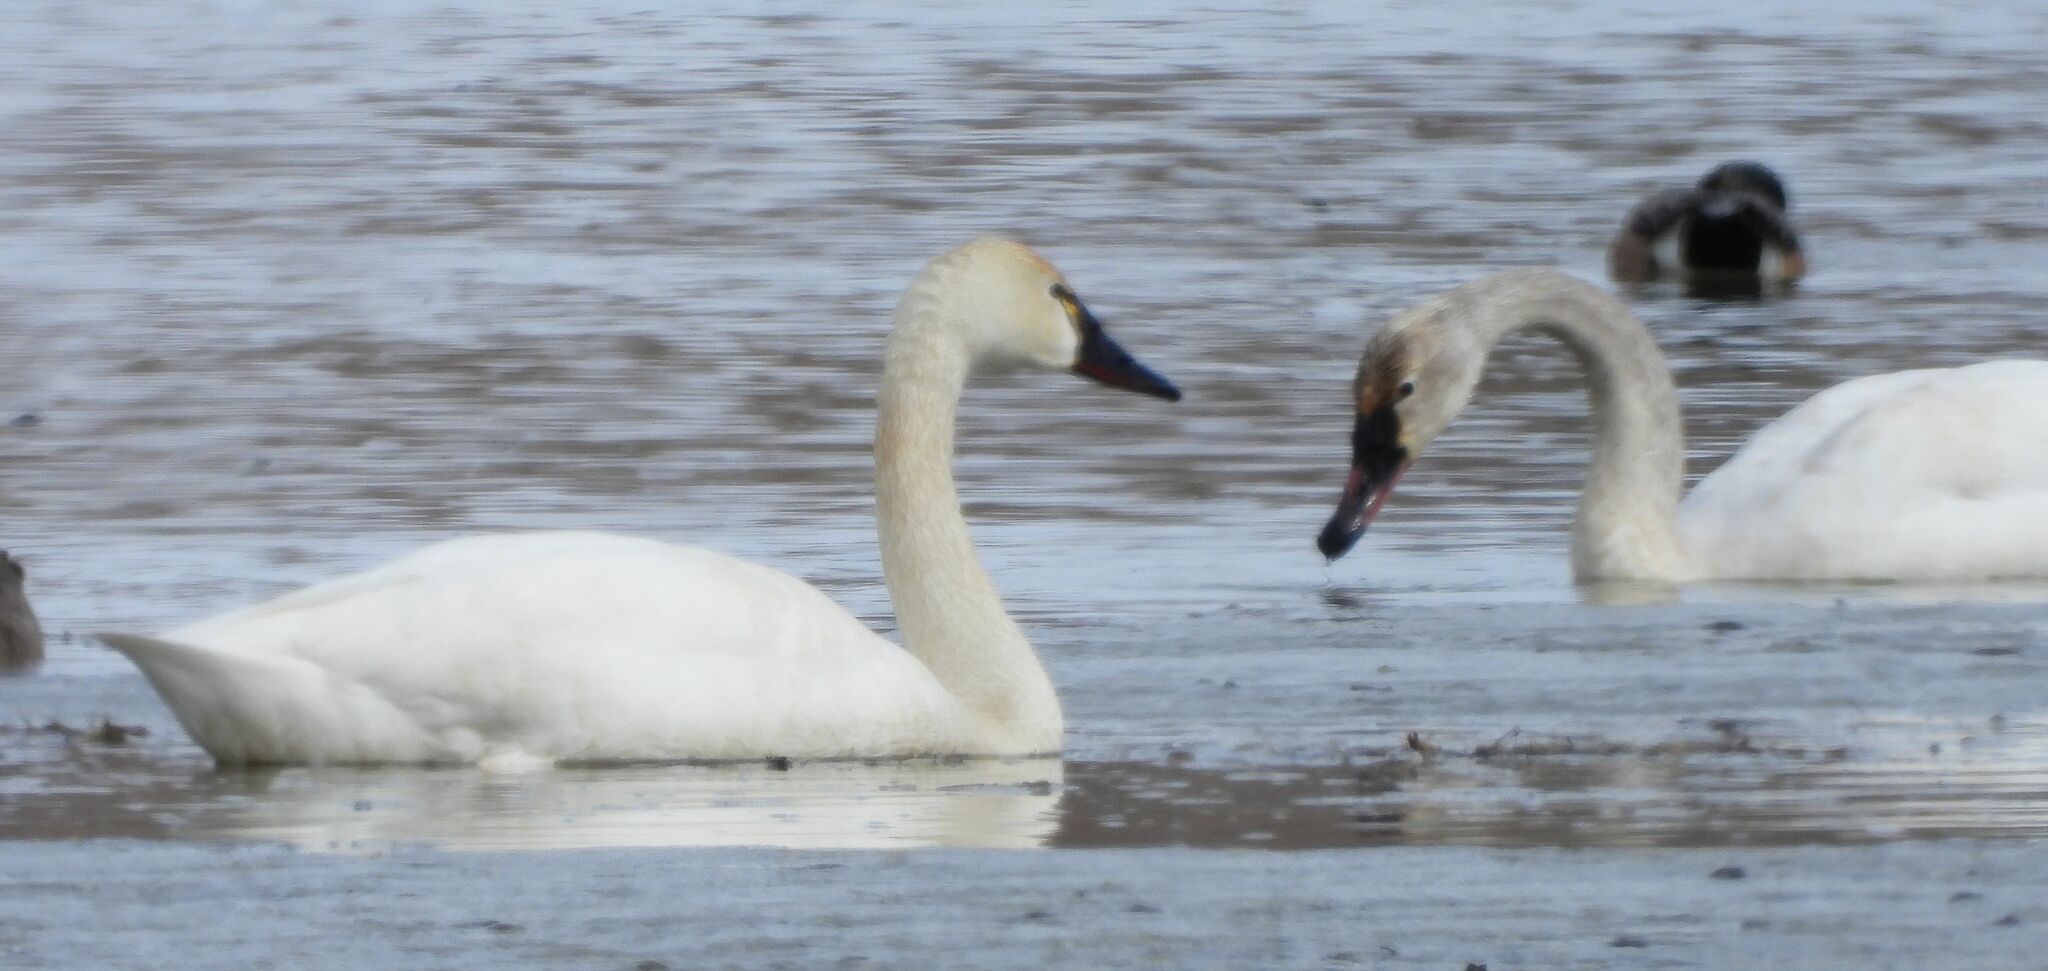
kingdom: Animalia
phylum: Chordata
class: Aves
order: Anseriformes
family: Anatidae
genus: Cygnus
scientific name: Cygnus columbianus
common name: Tundra swan
